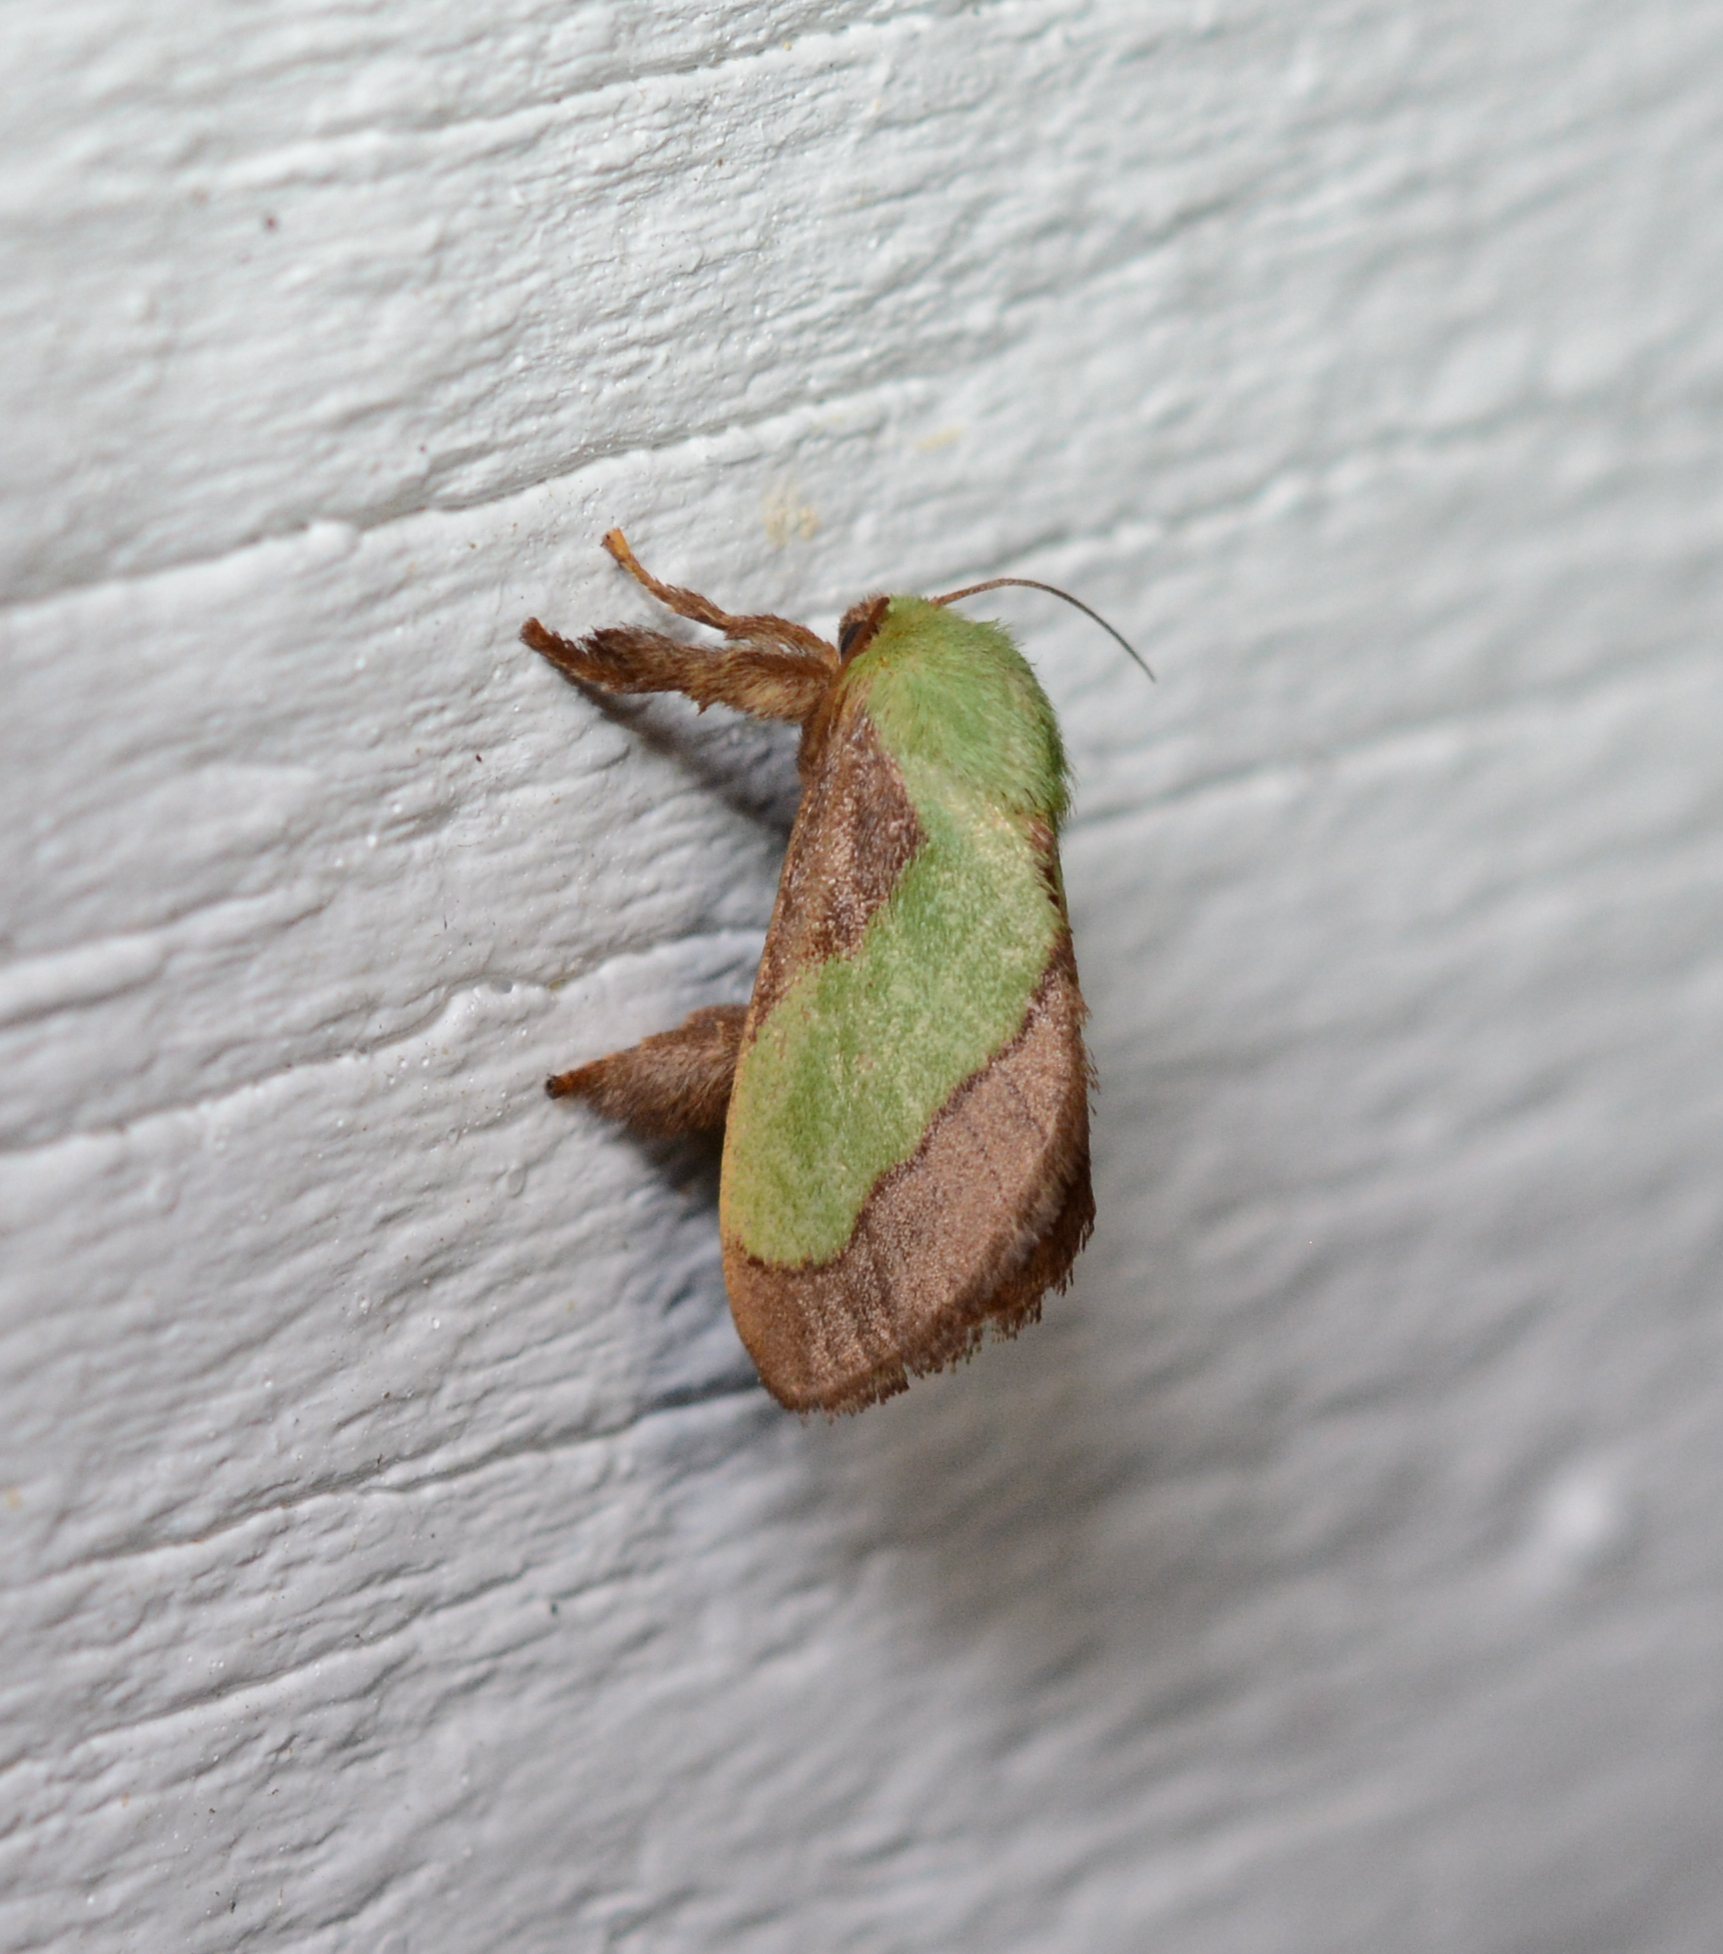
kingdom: Animalia
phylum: Arthropoda
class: Insecta
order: Lepidoptera
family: Limacodidae
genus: Parasa
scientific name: Parasa chloris
